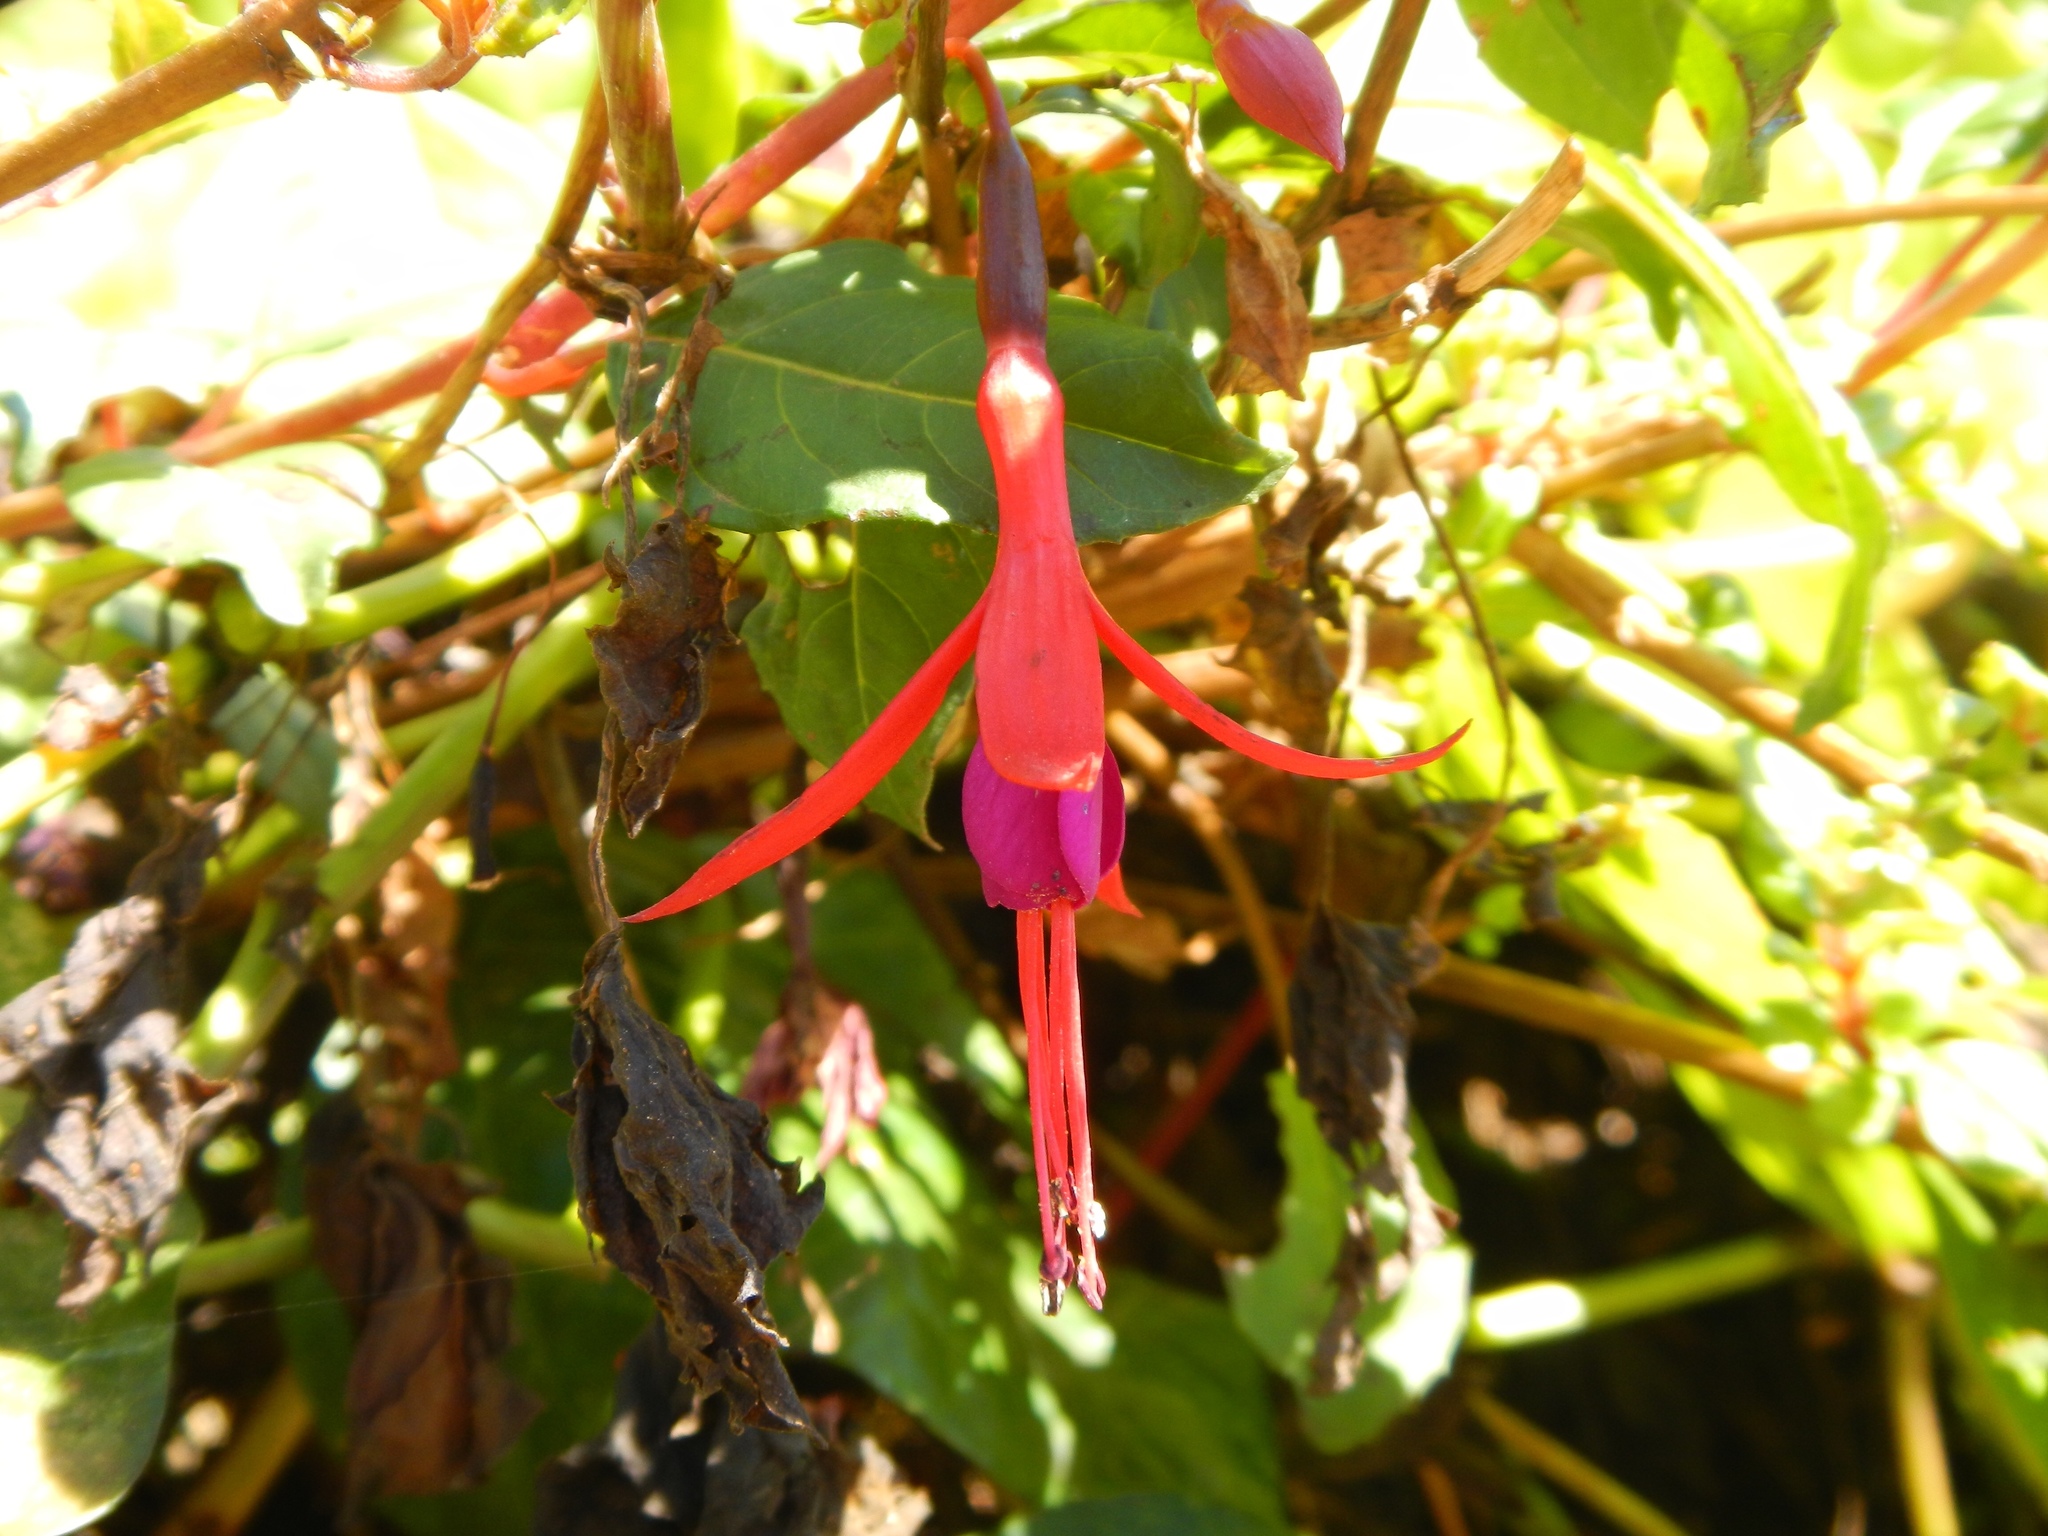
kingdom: Plantae
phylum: Tracheophyta
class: Magnoliopsida
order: Myrtales
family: Onagraceae
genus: Fuchsia
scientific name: Fuchsia magellanica
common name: Hardy fuchsia
